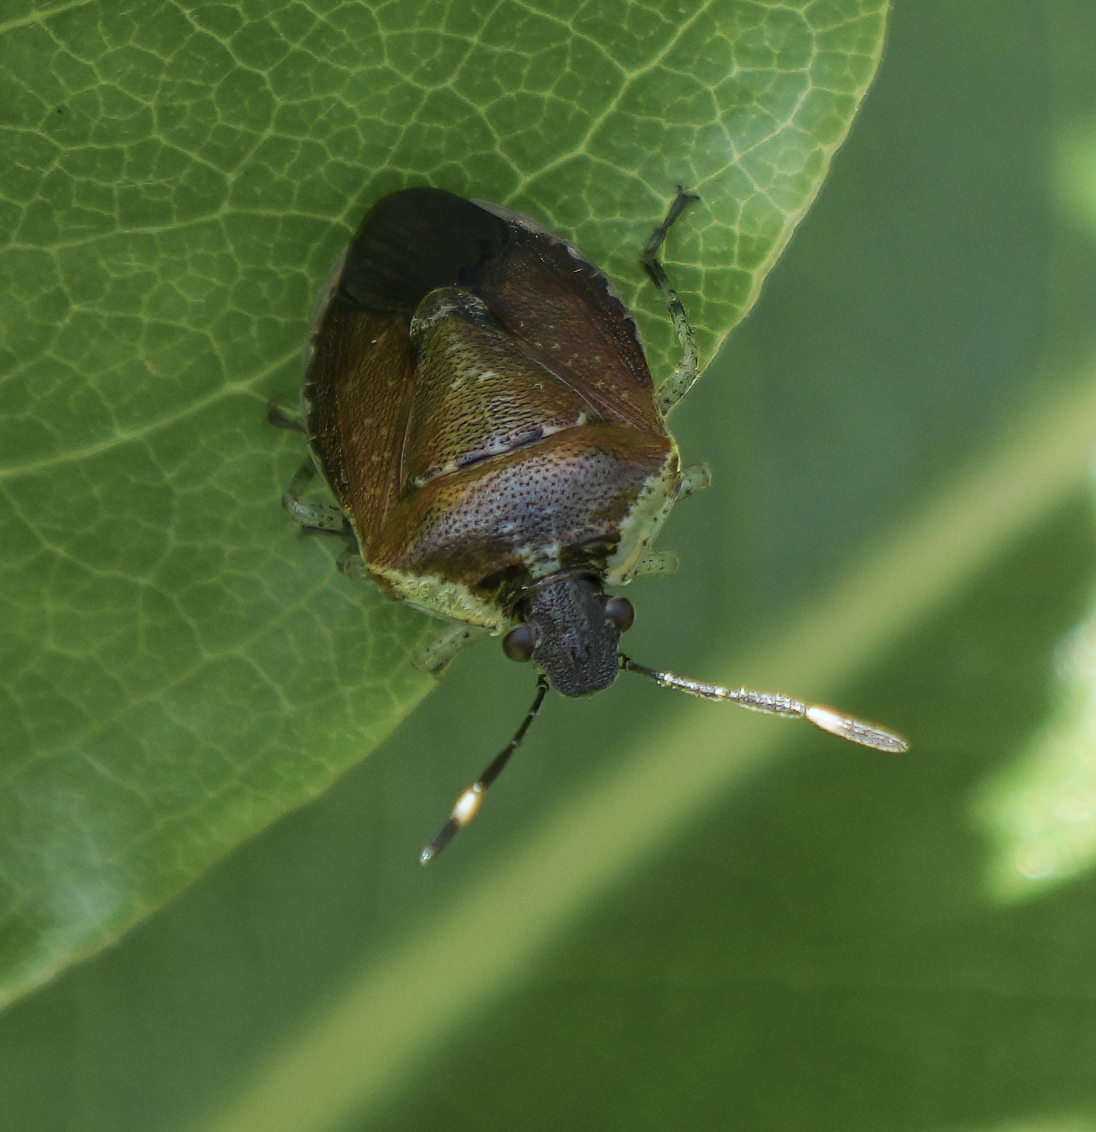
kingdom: Animalia
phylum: Arthropoda
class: Insecta
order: Hemiptera
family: Pentatomidae
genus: Monteithiella
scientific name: Monteithiella
